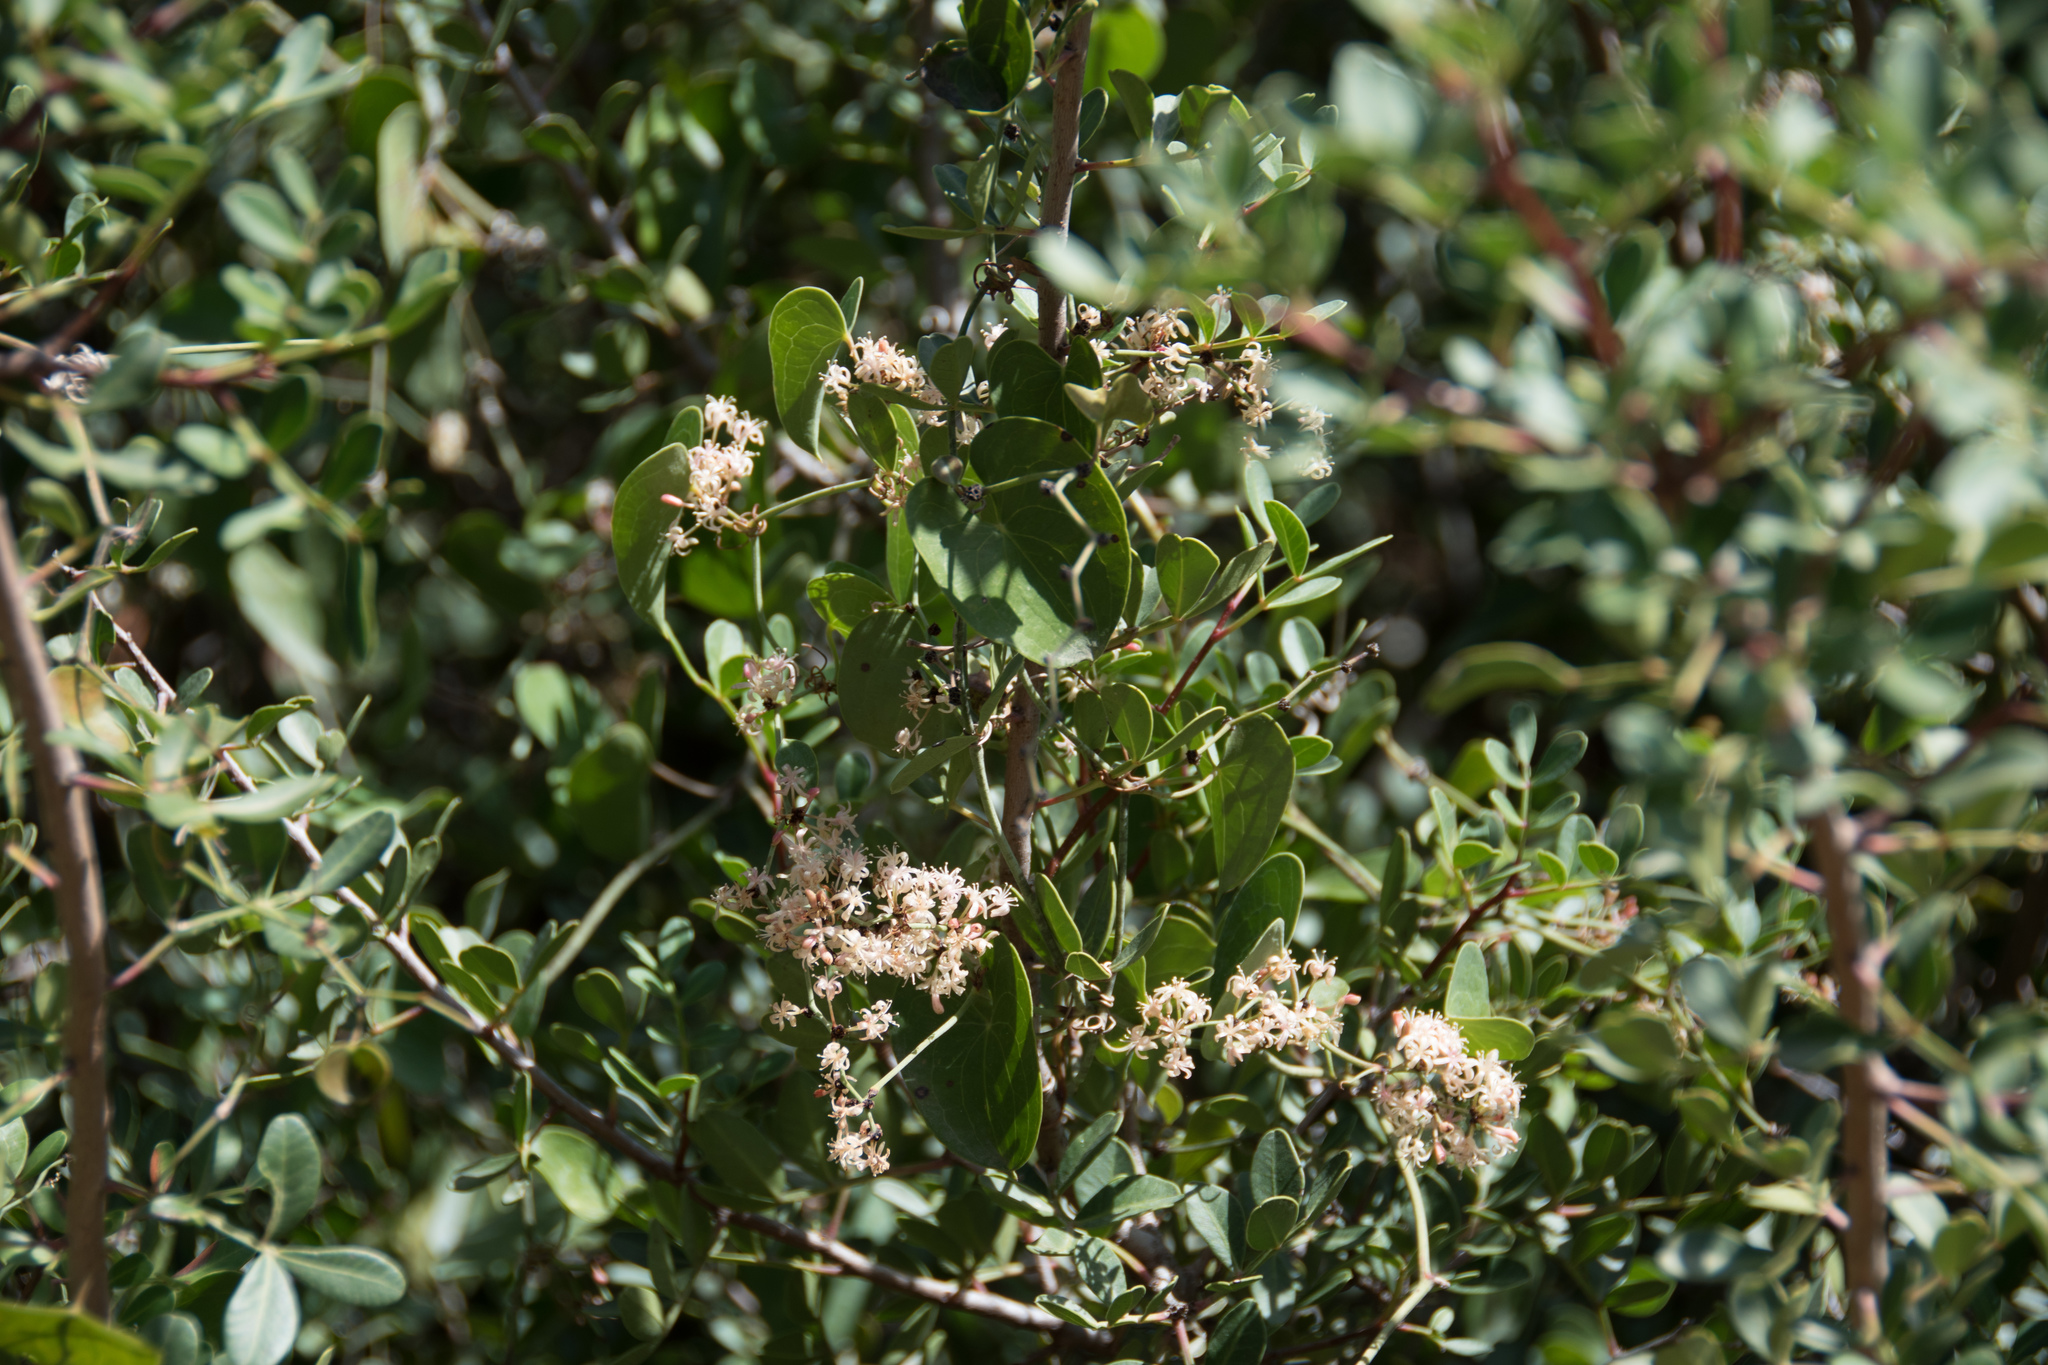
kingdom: Plantae
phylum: Tracheophyta
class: Liliopsida
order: Liliales
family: Smilacaceae
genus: Smilax
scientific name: Smilax aspera
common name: Common smilax
